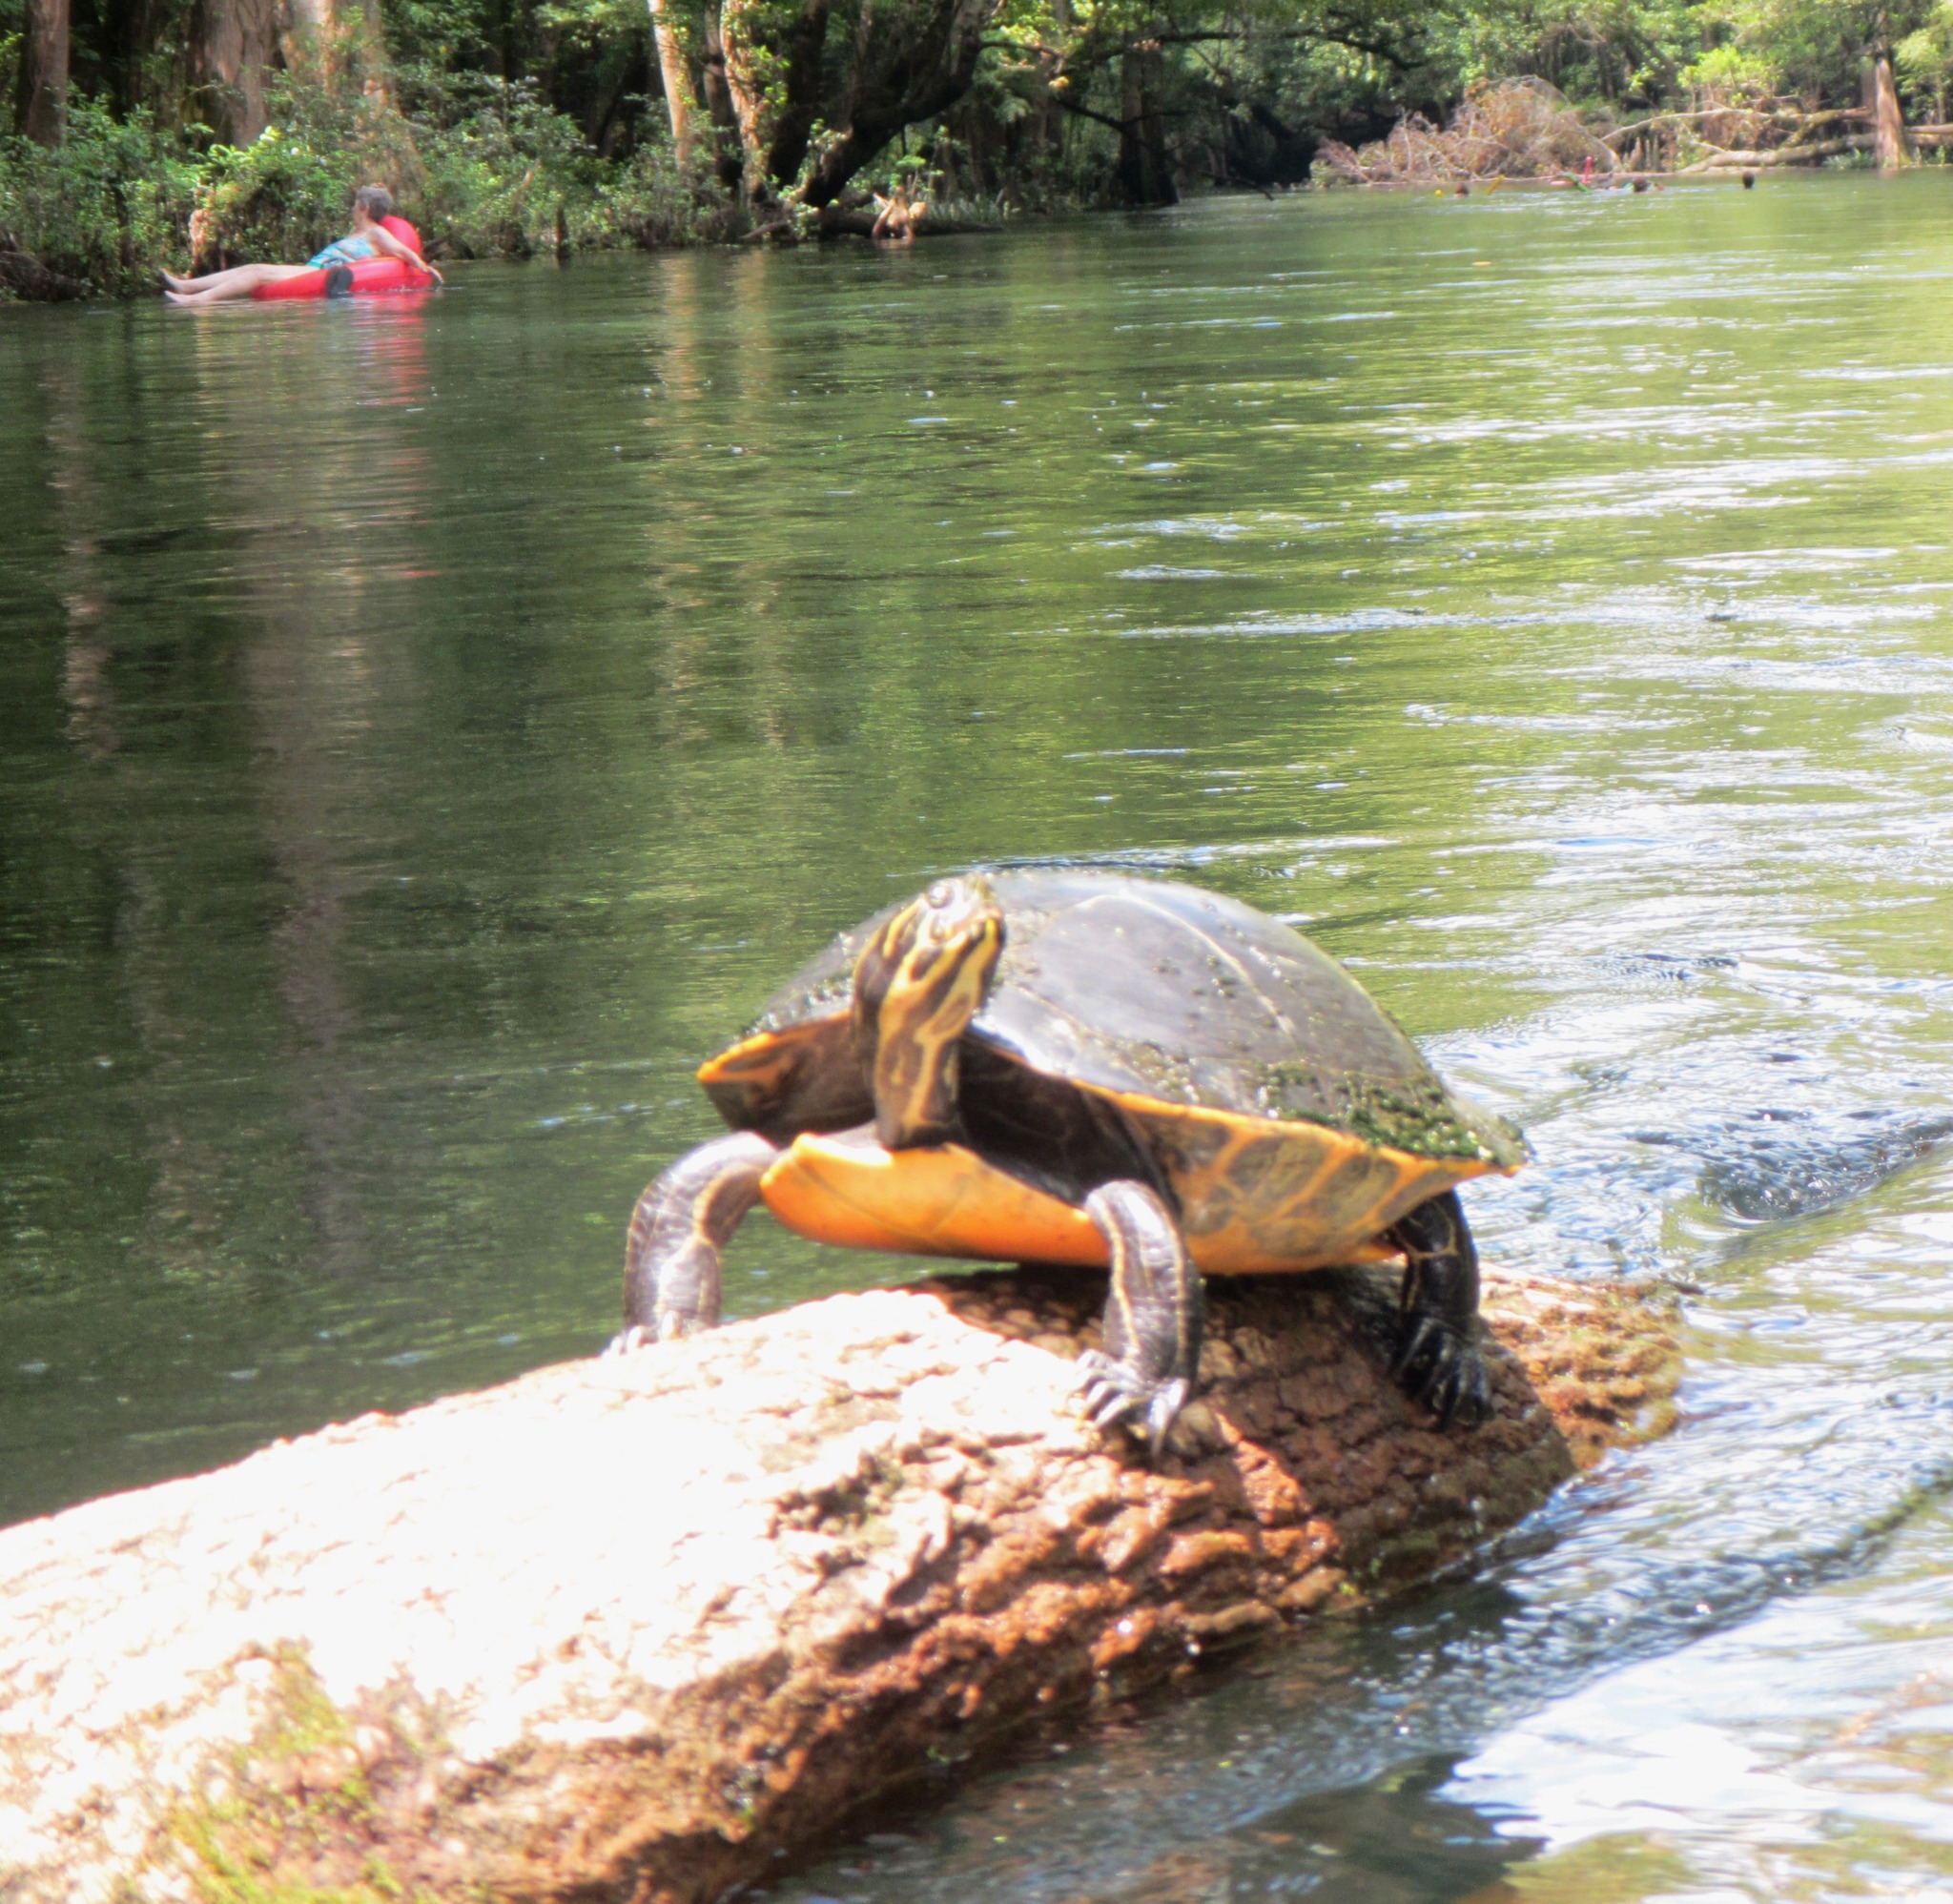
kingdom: Animalia
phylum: Chordata
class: Testudines
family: Emydidae
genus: Pseudemys
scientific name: Pseudemys concinna
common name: Eastern river cooter
